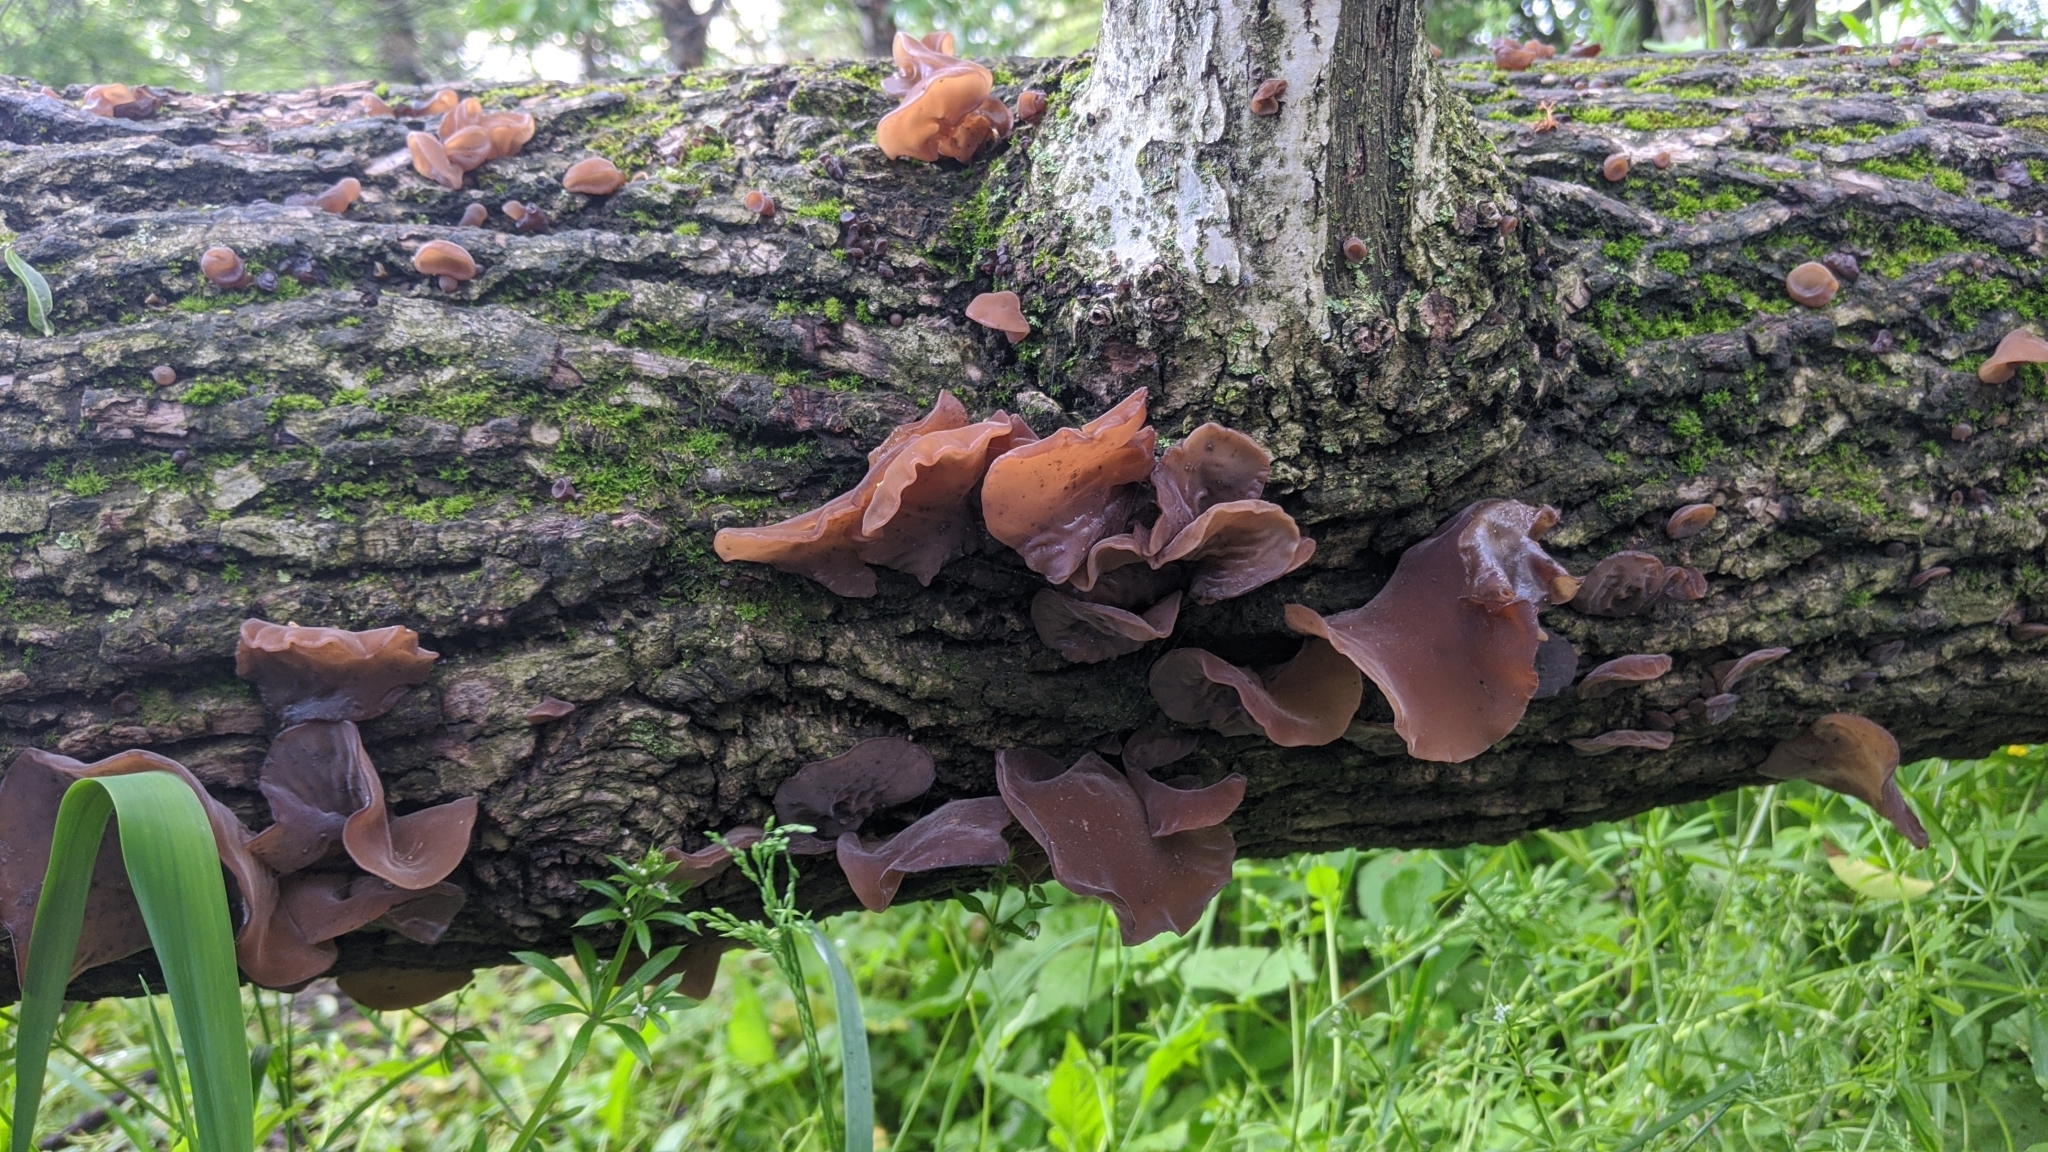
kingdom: Fungi
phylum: Basidiomycota
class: Agaricomycetes
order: Auriculariales
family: Auriculariaceae
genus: Auricularia
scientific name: Auricularia
